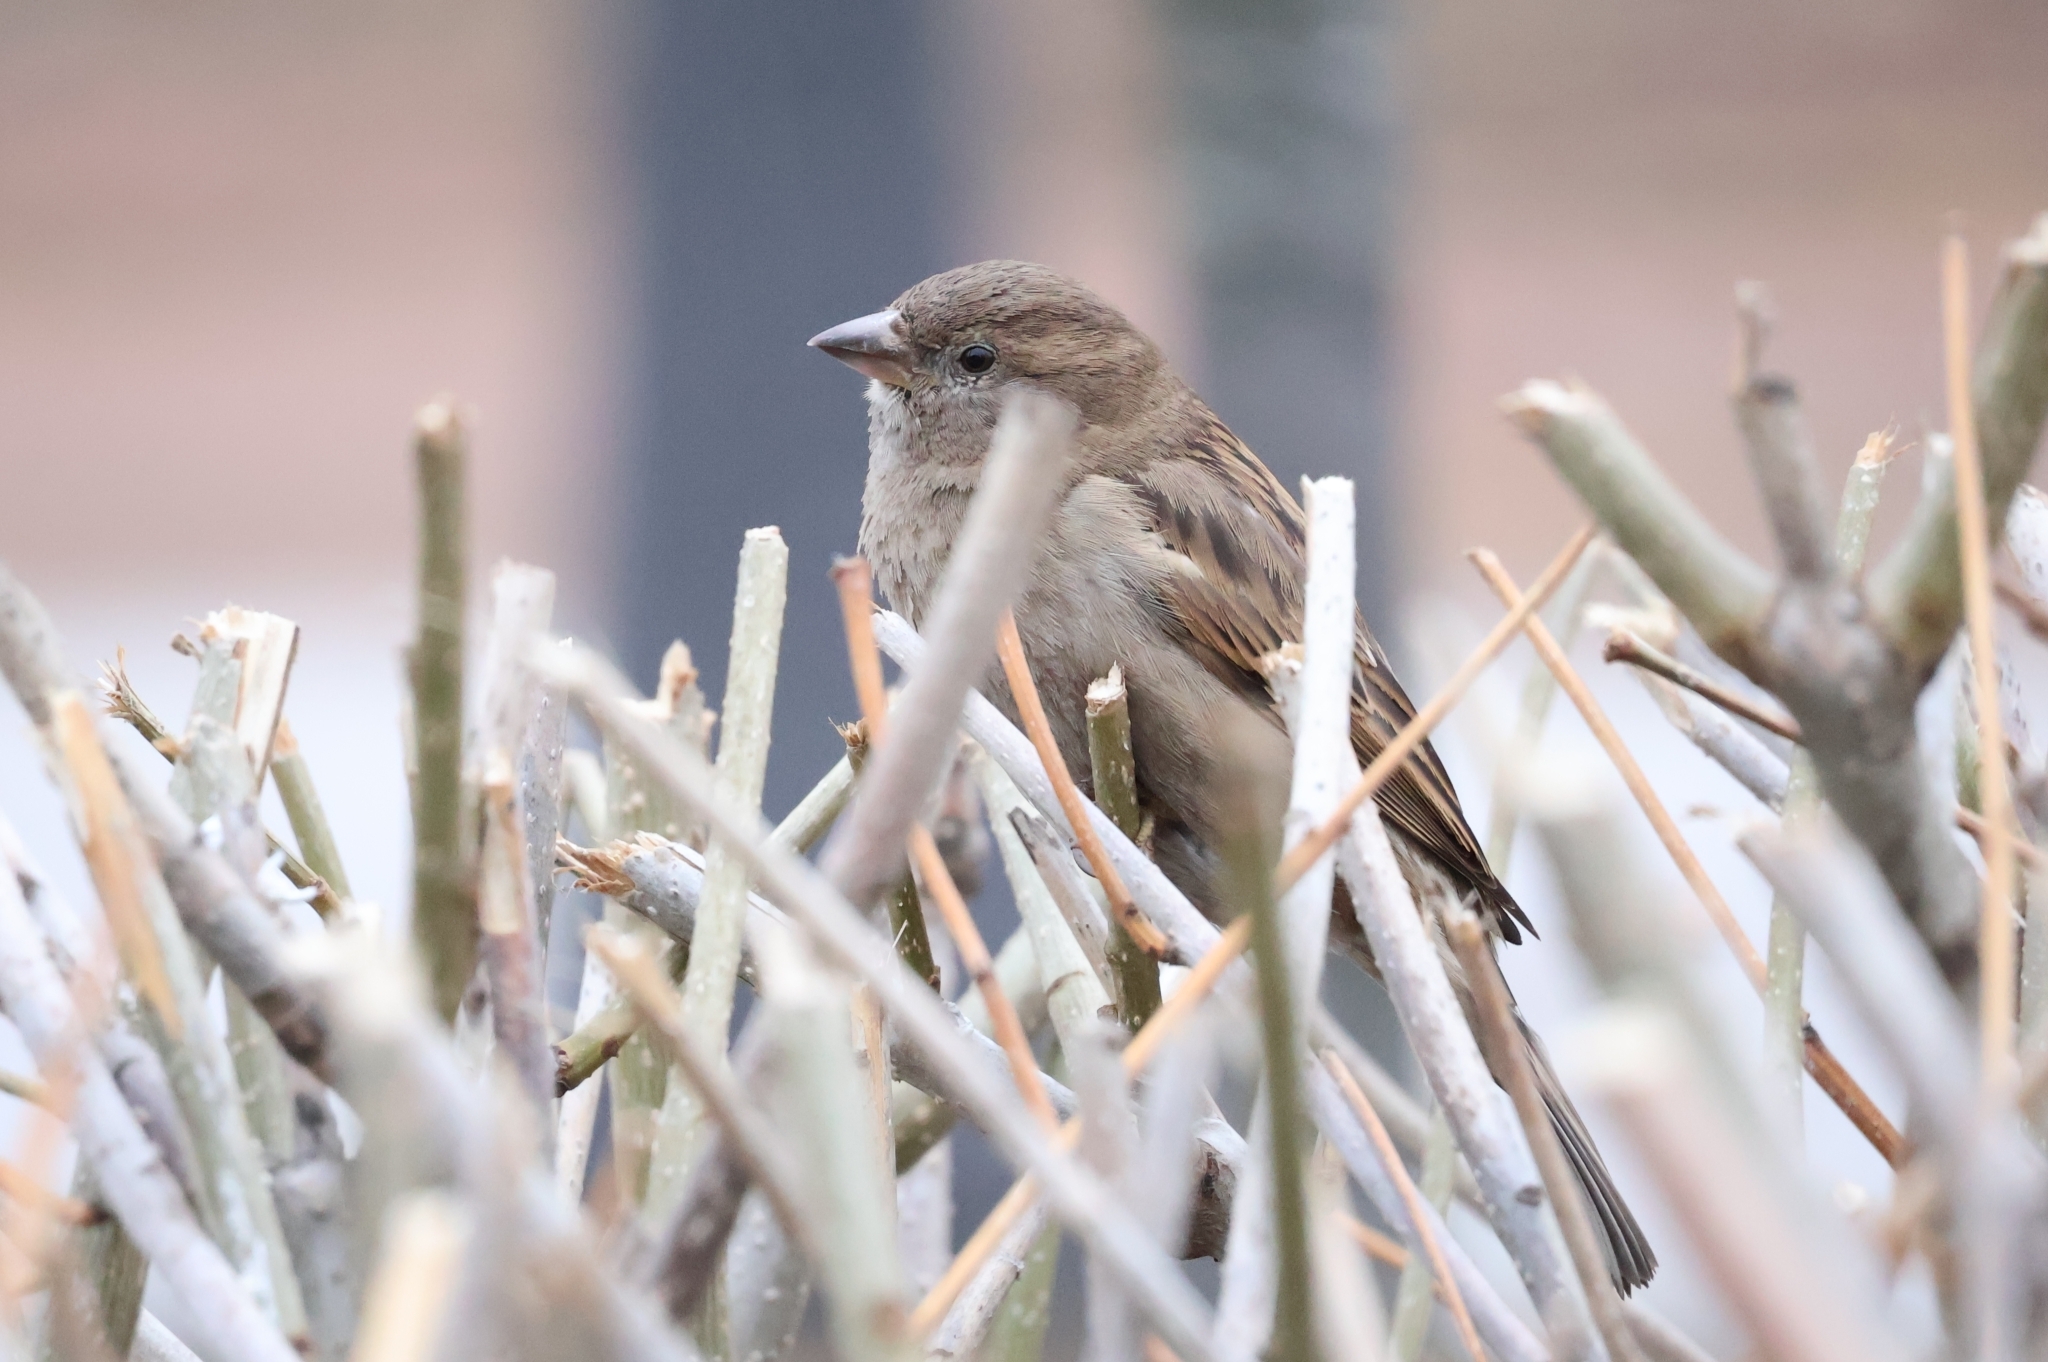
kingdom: Animalia
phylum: Chordata
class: Aves
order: Passeriformes
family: Passeridae
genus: Passer
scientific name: Passer domesticus
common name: House sparrow
